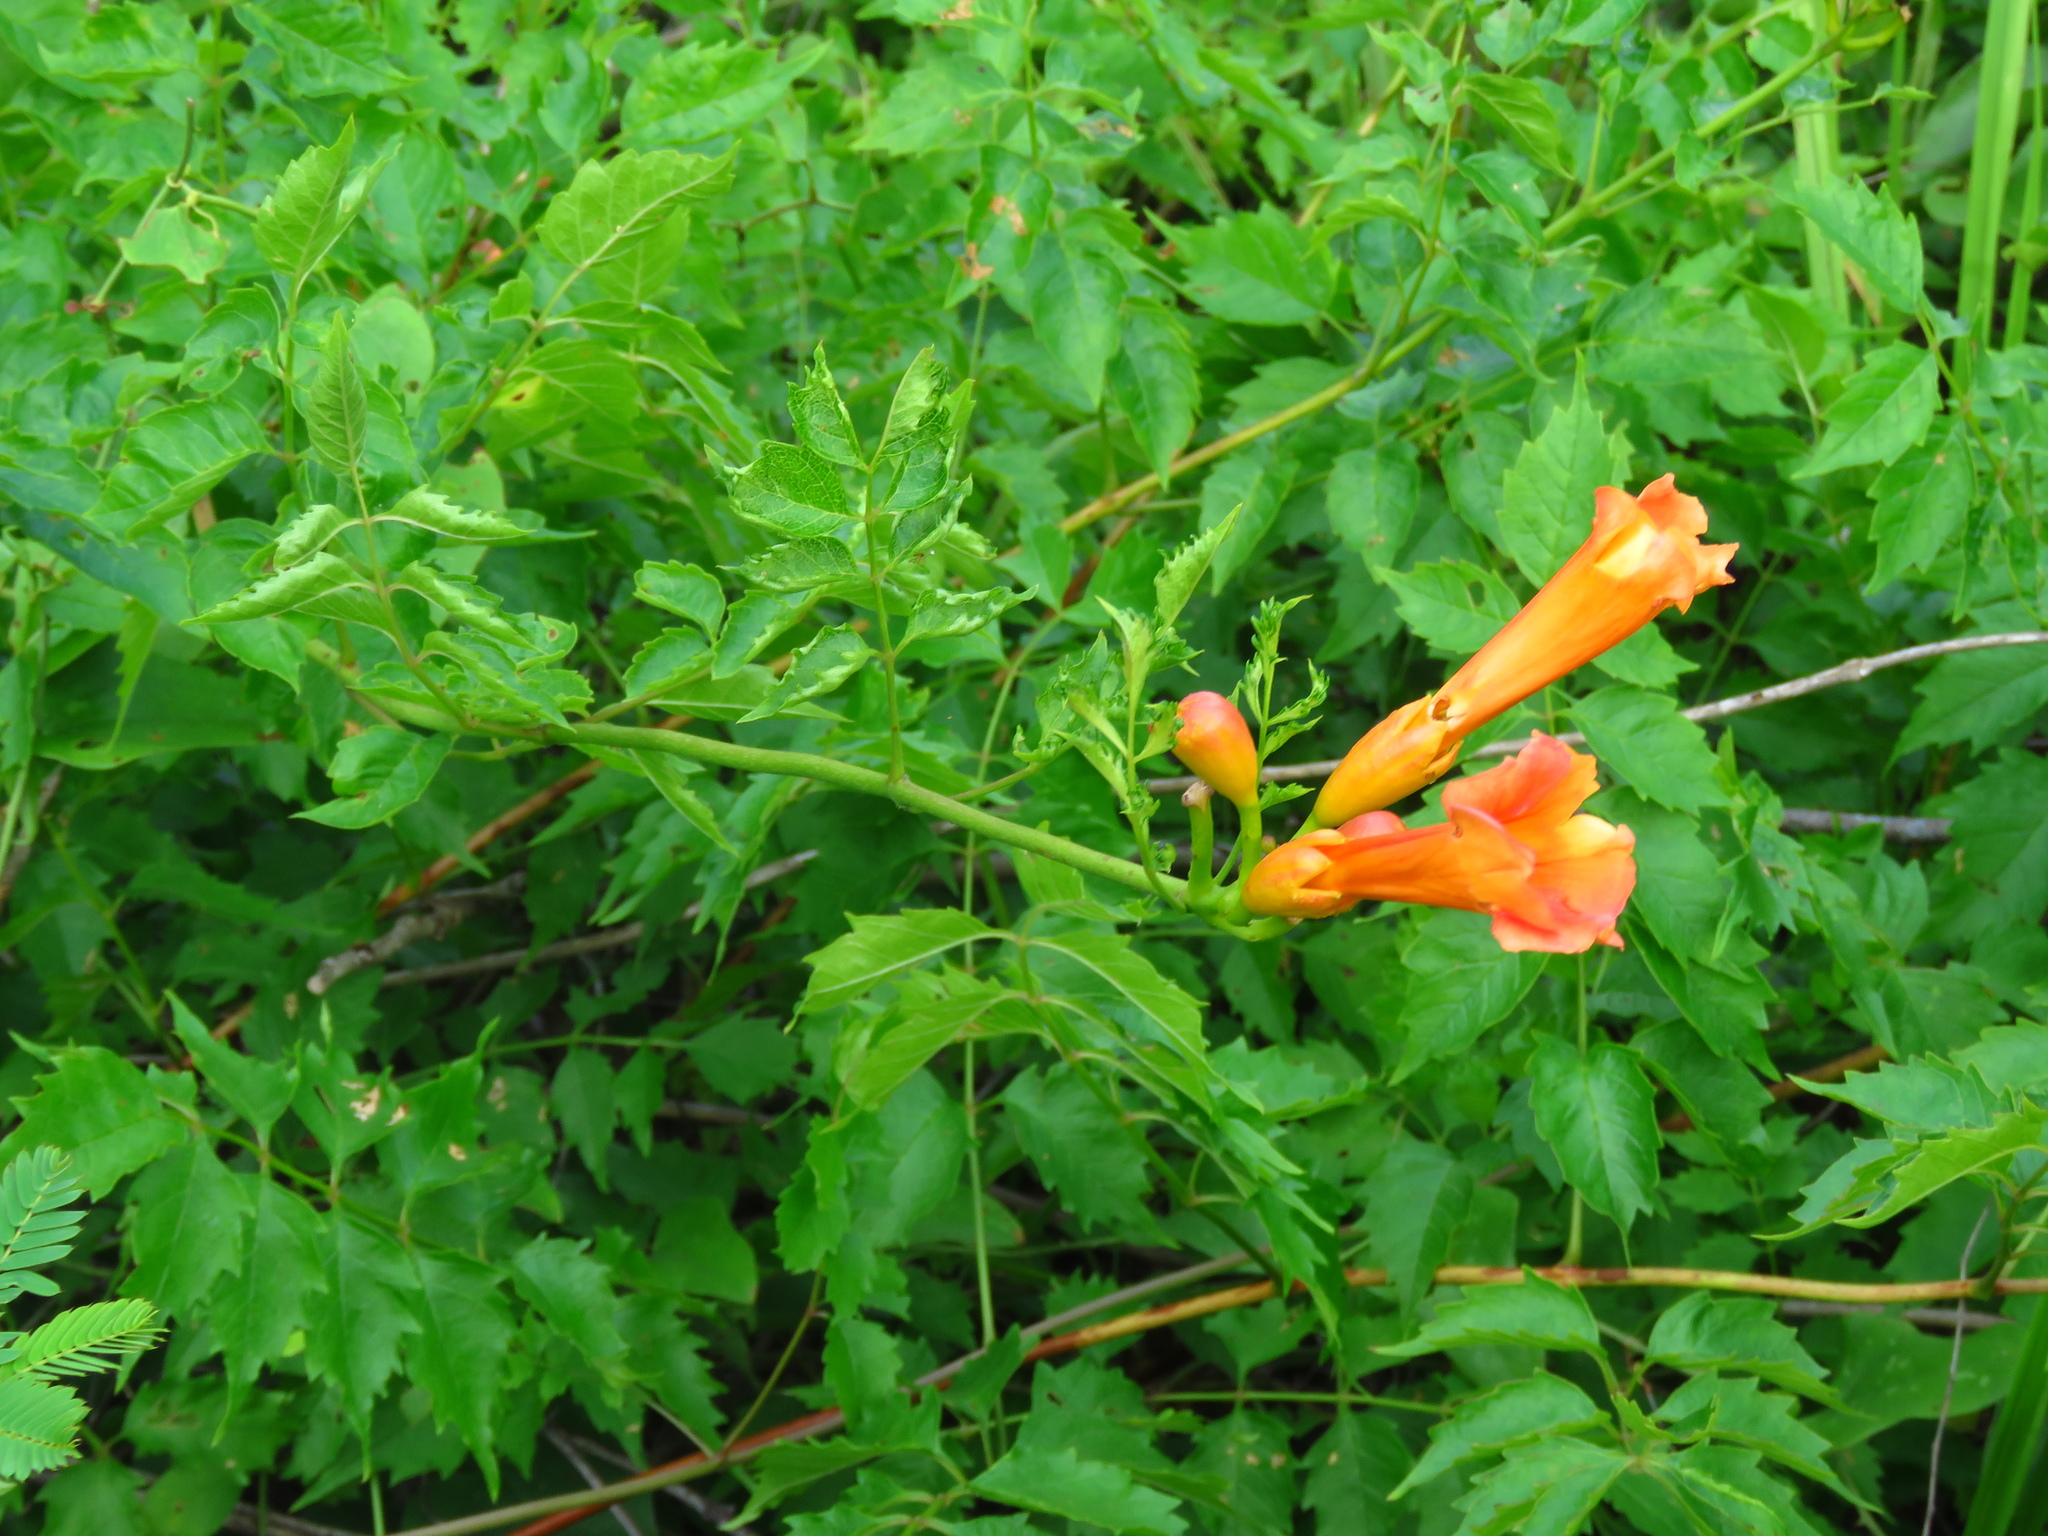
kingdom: Plantae
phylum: Tracheophyta
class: Magnoliopsida
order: Lamiales
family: Bignoniaceae
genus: Campsis
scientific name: Campsis radicans
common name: Trumpet-creeper
